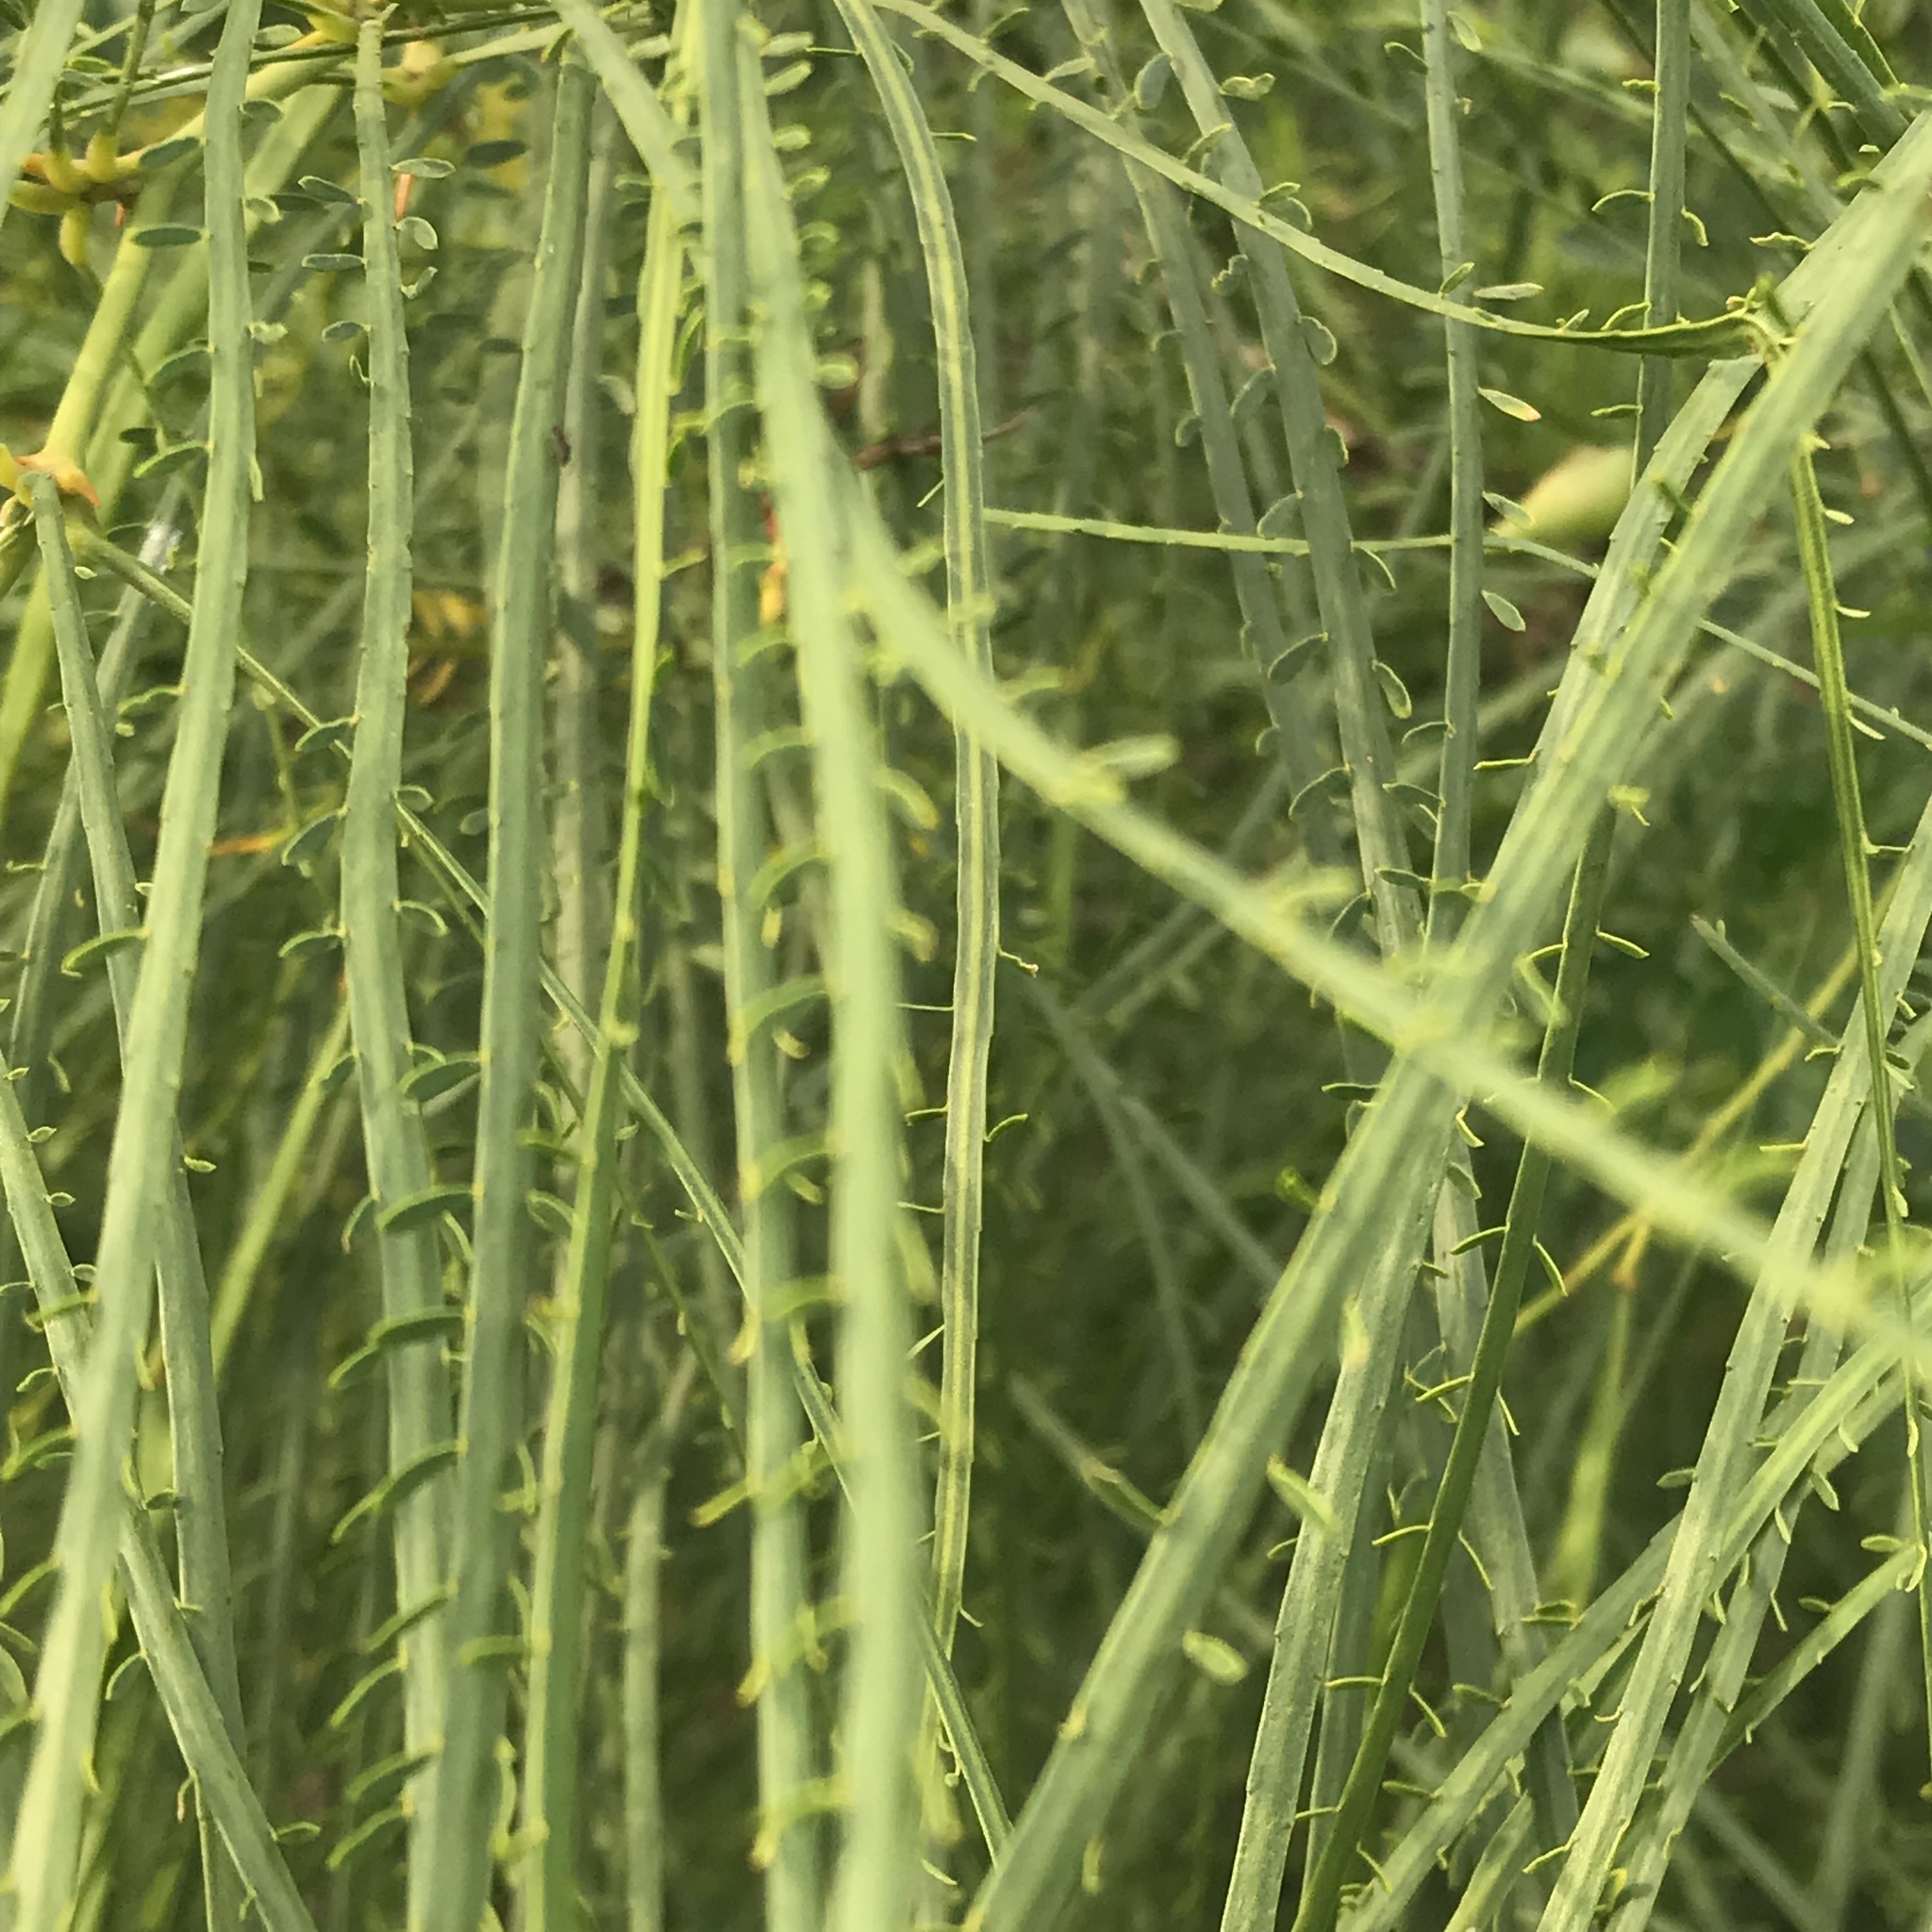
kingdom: Plantae
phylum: Tracheophyta
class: Magnoliopsida
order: Fabales
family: Fabaceae
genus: Parkinsonia
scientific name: Parkinsonia aculeata
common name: Jerusalem thorn
